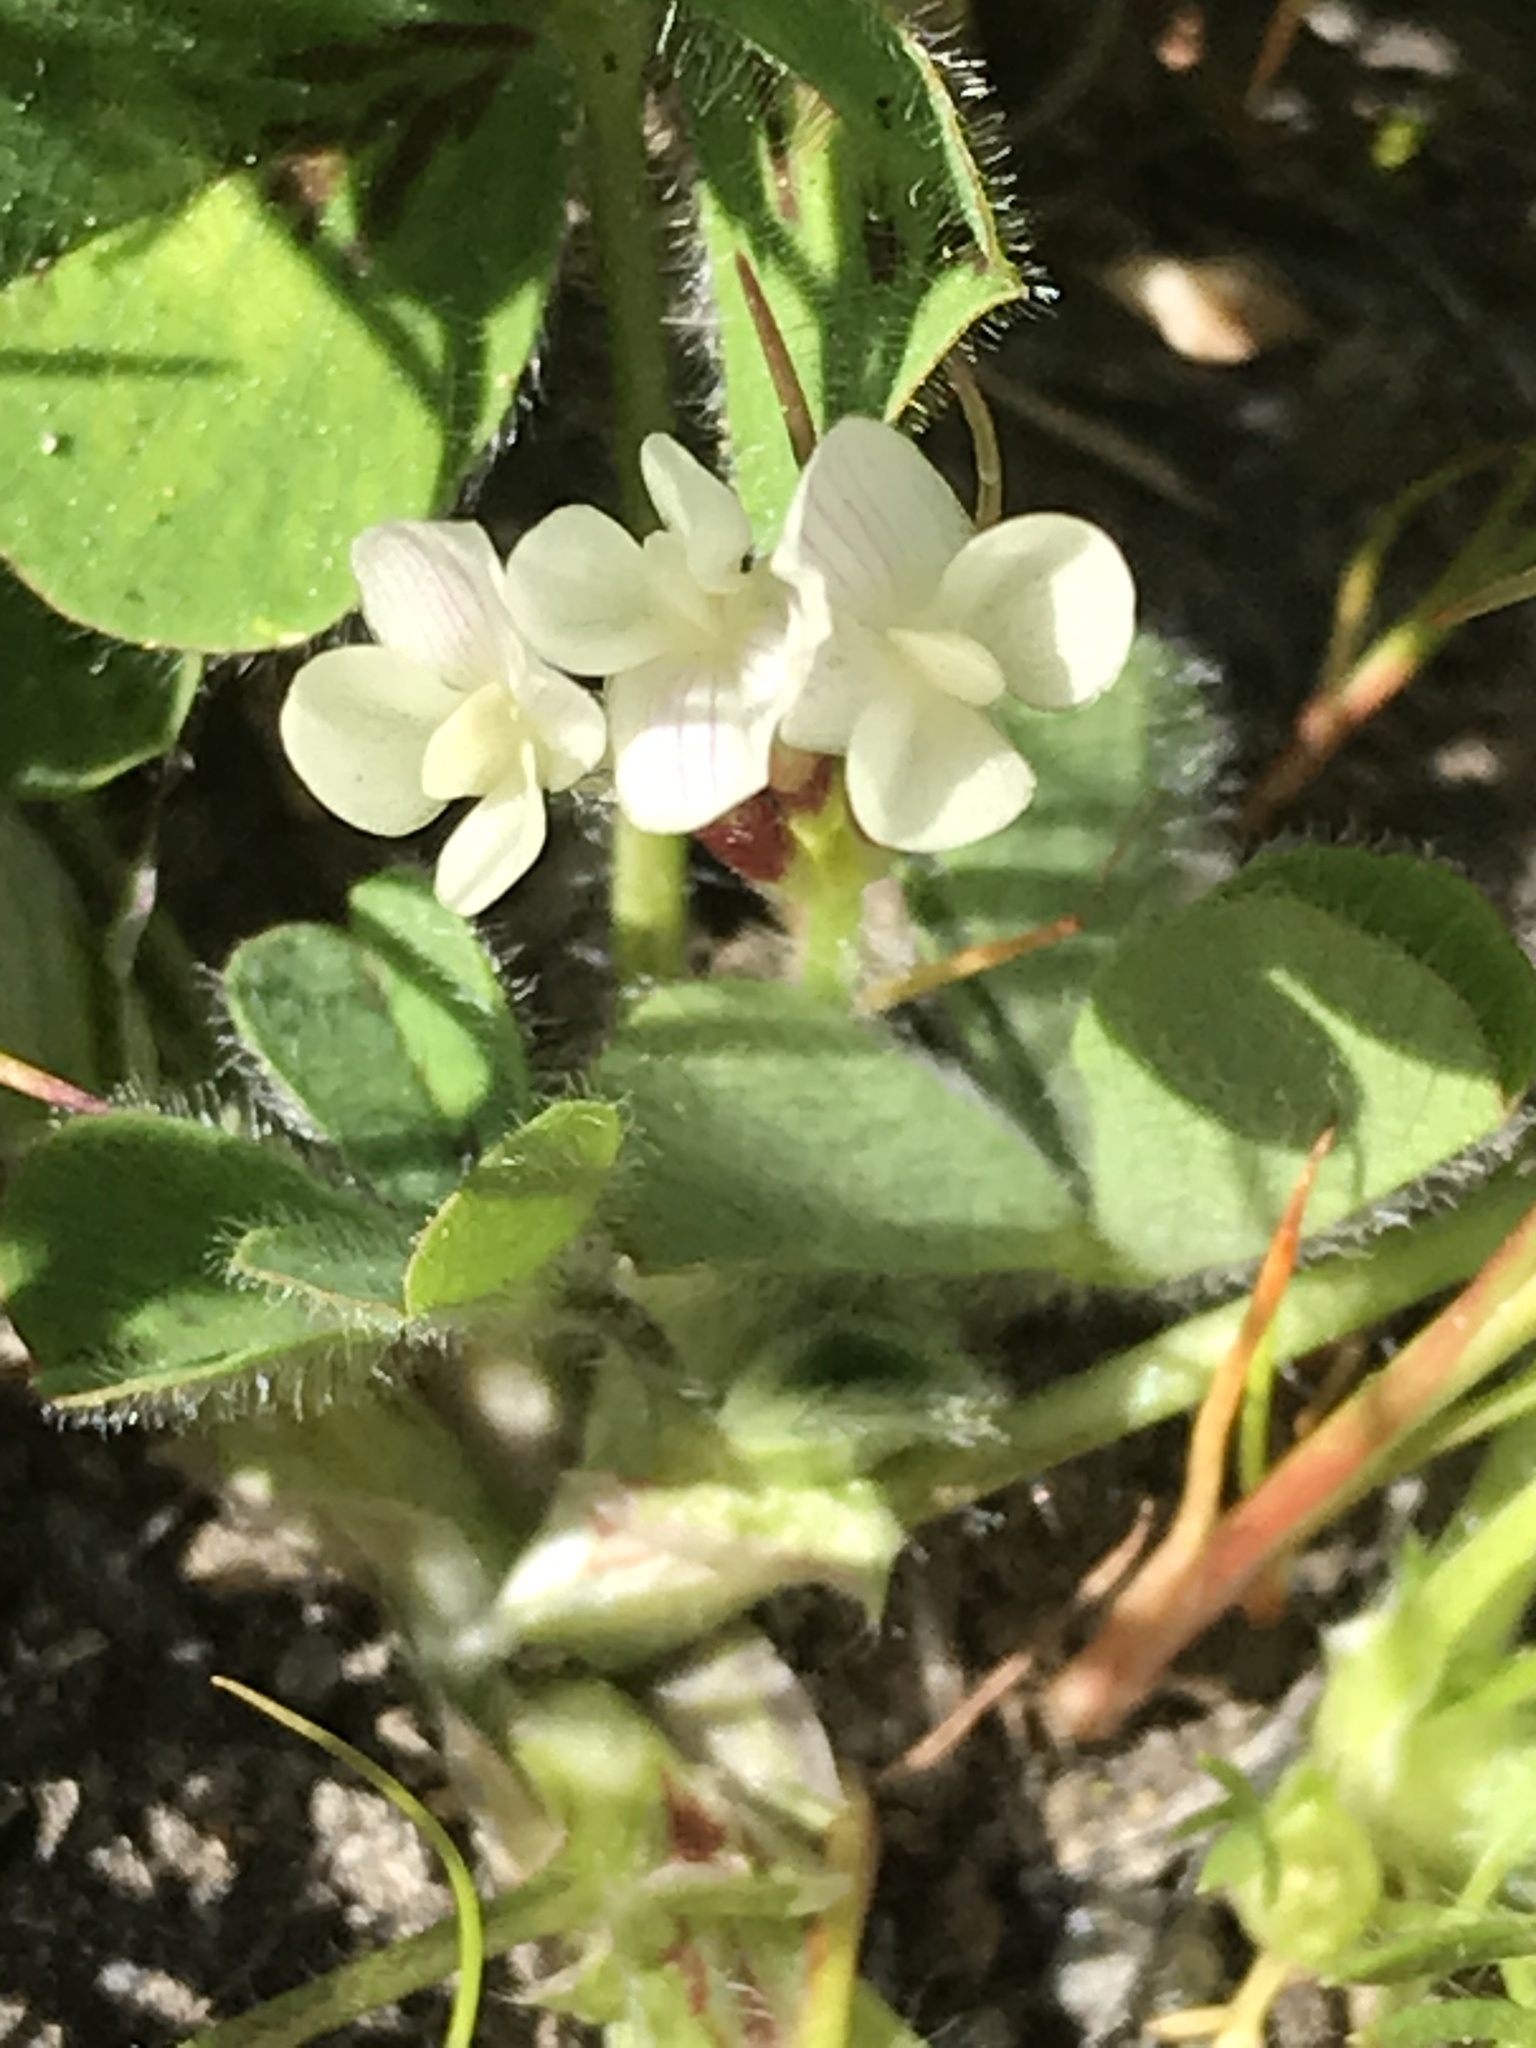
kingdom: Plantae
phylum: Tracheophyta
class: Magnoliopsida
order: Fabales
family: Fabaceae
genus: Trifolium
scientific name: Trifolium subterraneum
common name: Subterranean clover
